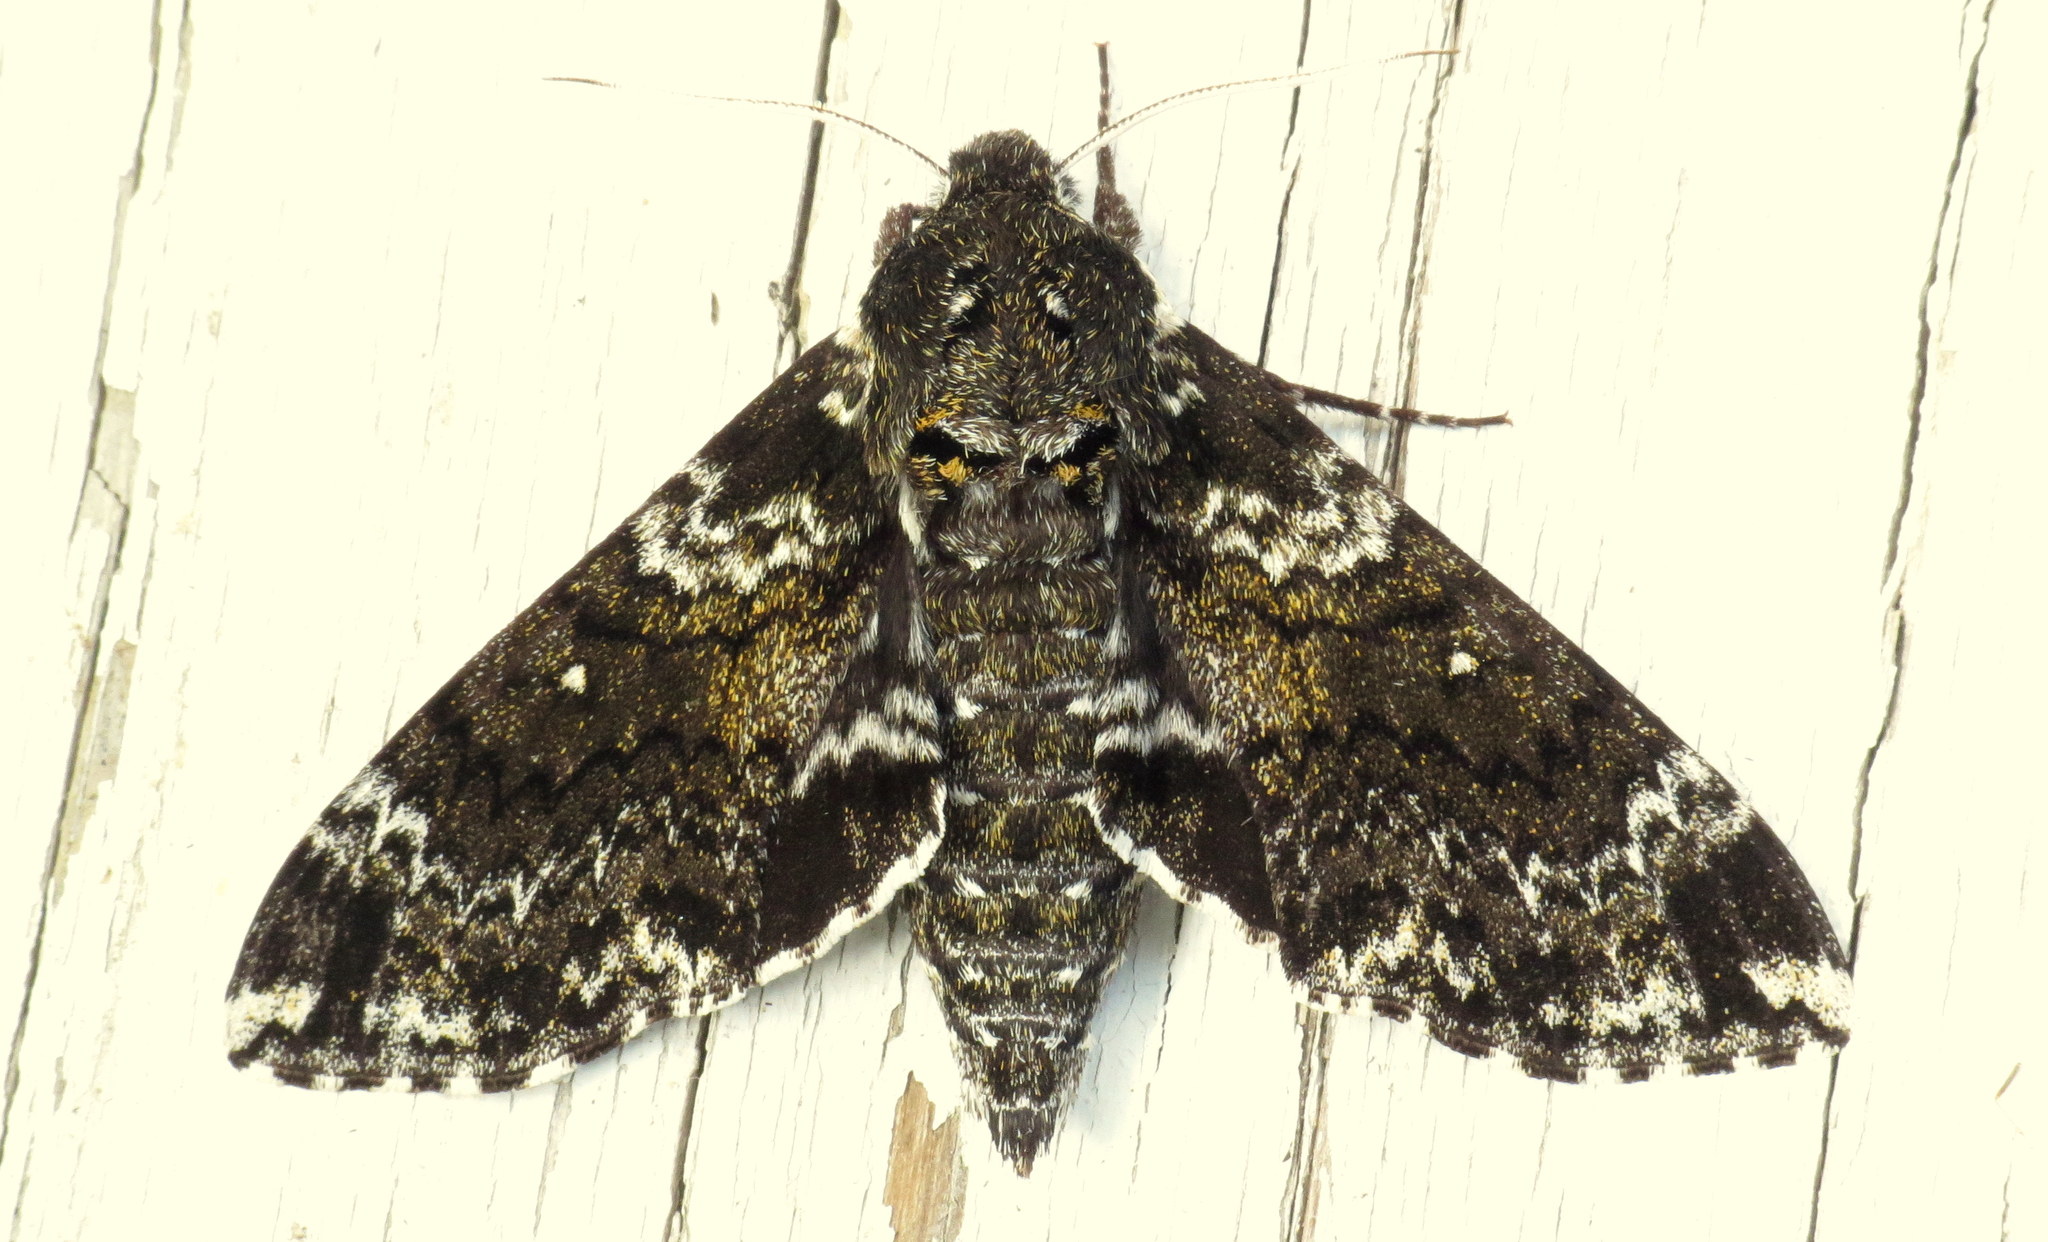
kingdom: Animalia
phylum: Arthropoda
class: Insecta
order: Lepidoptera
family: Sphingidae
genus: Dolba
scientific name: Dolba hyloeus
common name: Pawpaw sphinx
